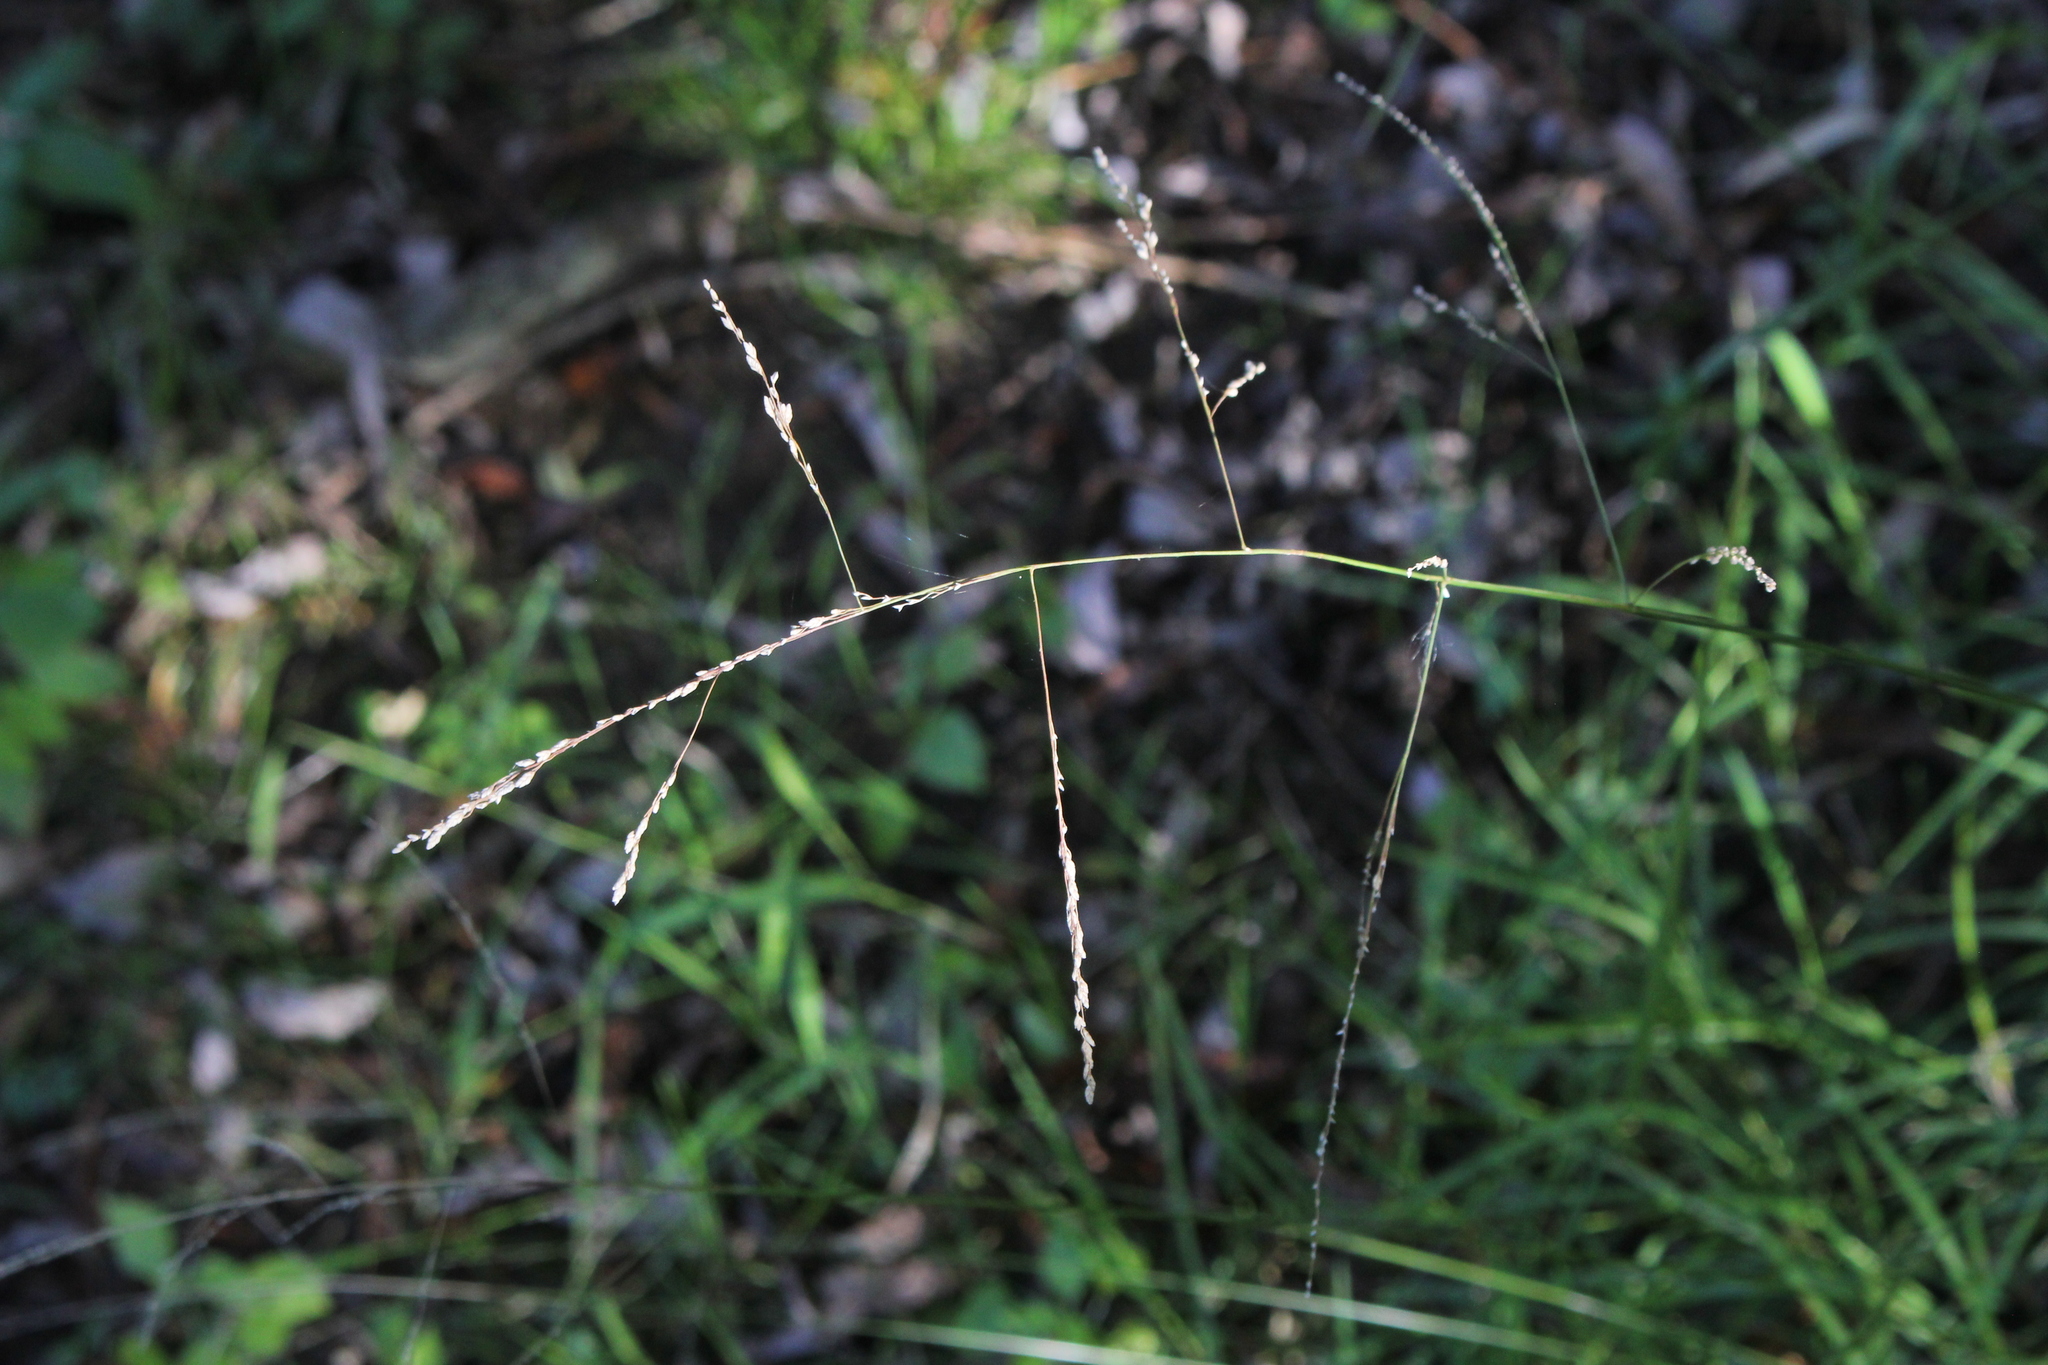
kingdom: Plantae
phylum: Tracheophyta
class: Liliopsida
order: Poales
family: Poaceae
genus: Glyceria
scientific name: Glyceria striata
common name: Fowl manna grass
